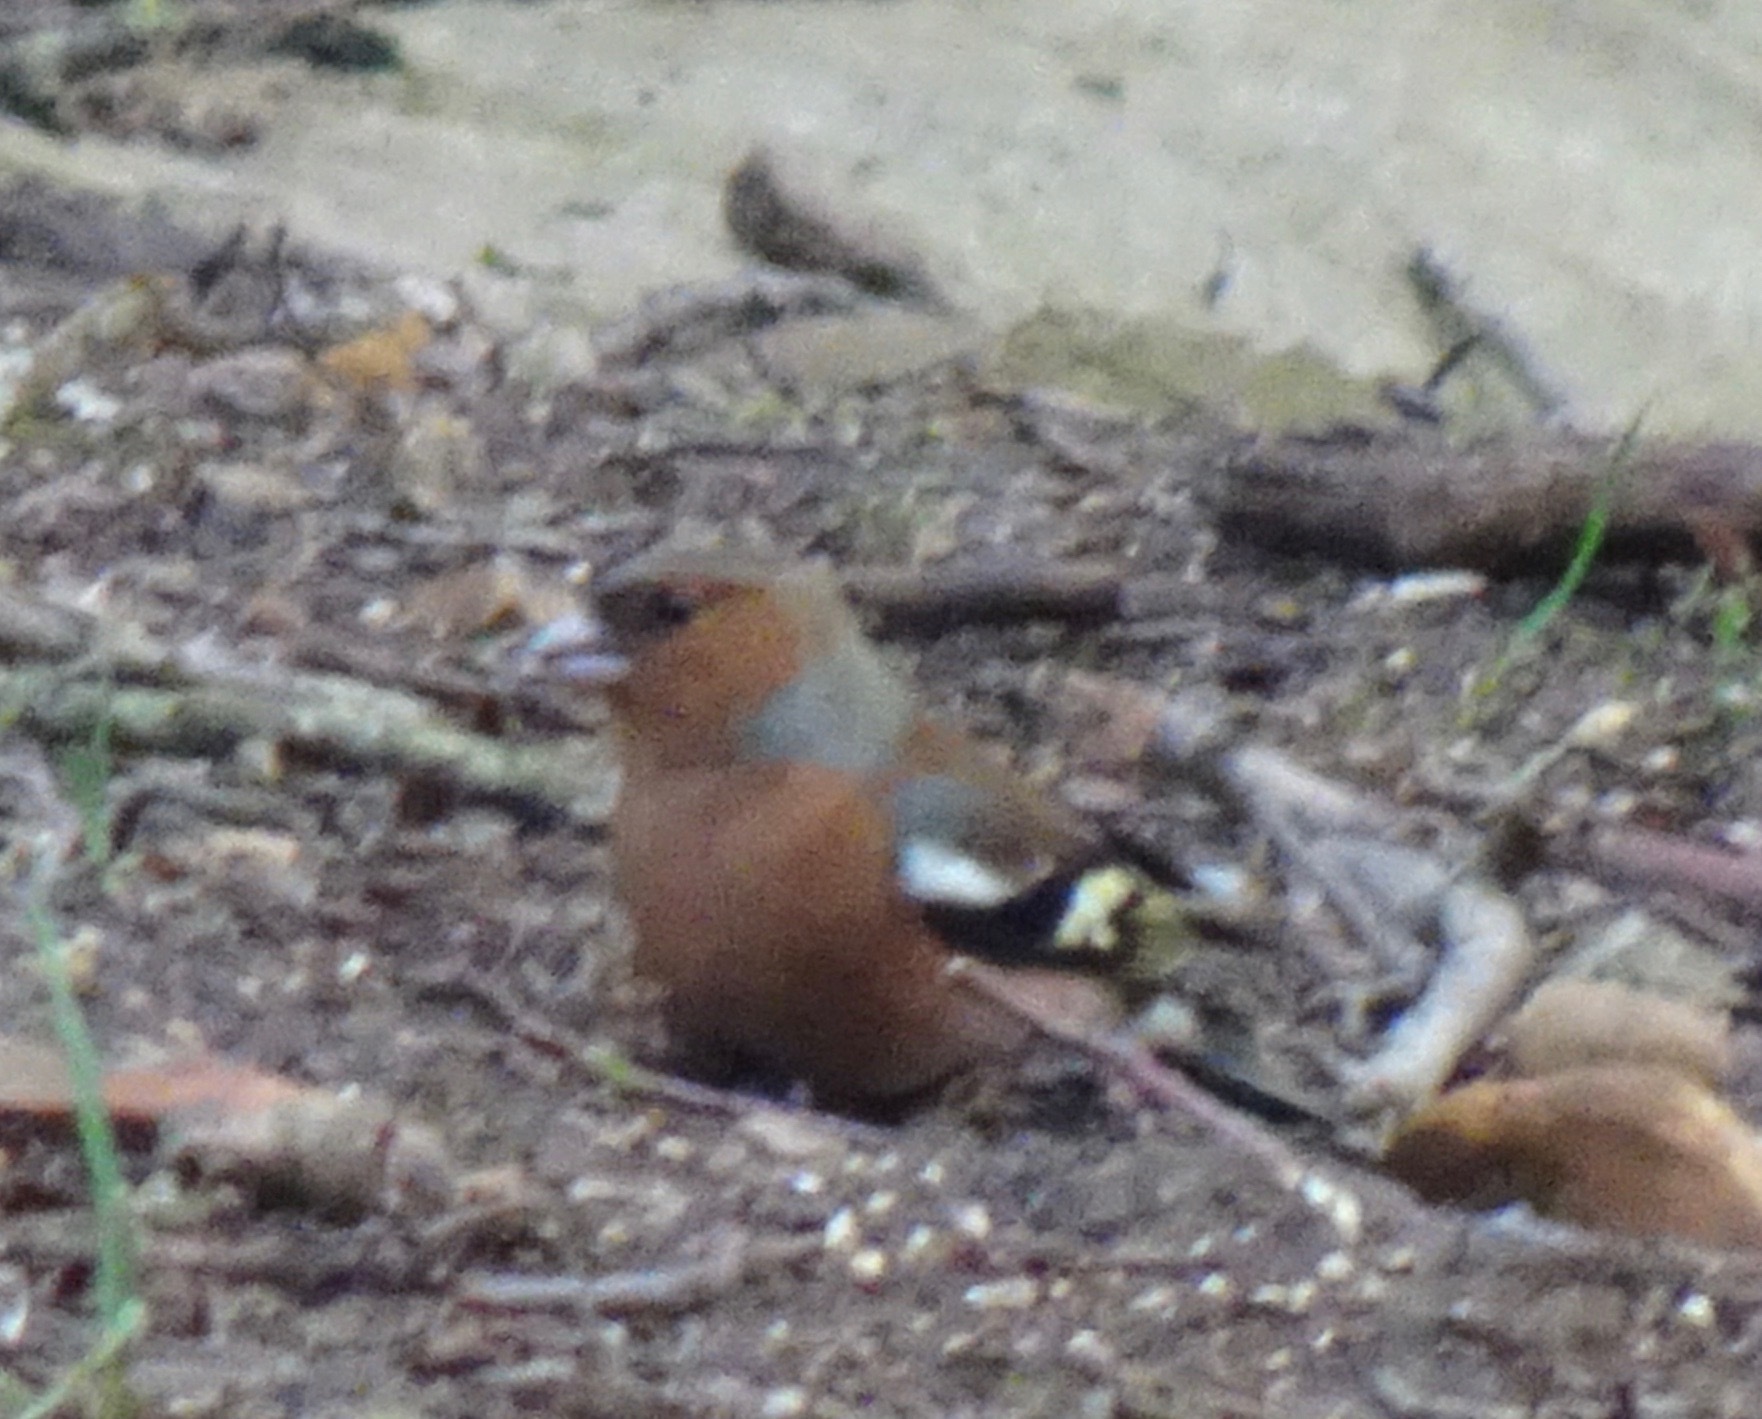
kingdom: Animalia
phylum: Chordata
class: Aves
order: Passeriformes
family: Fringillidae
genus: Fringilla
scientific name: Fringilla coelebs
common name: Common chaffinch
